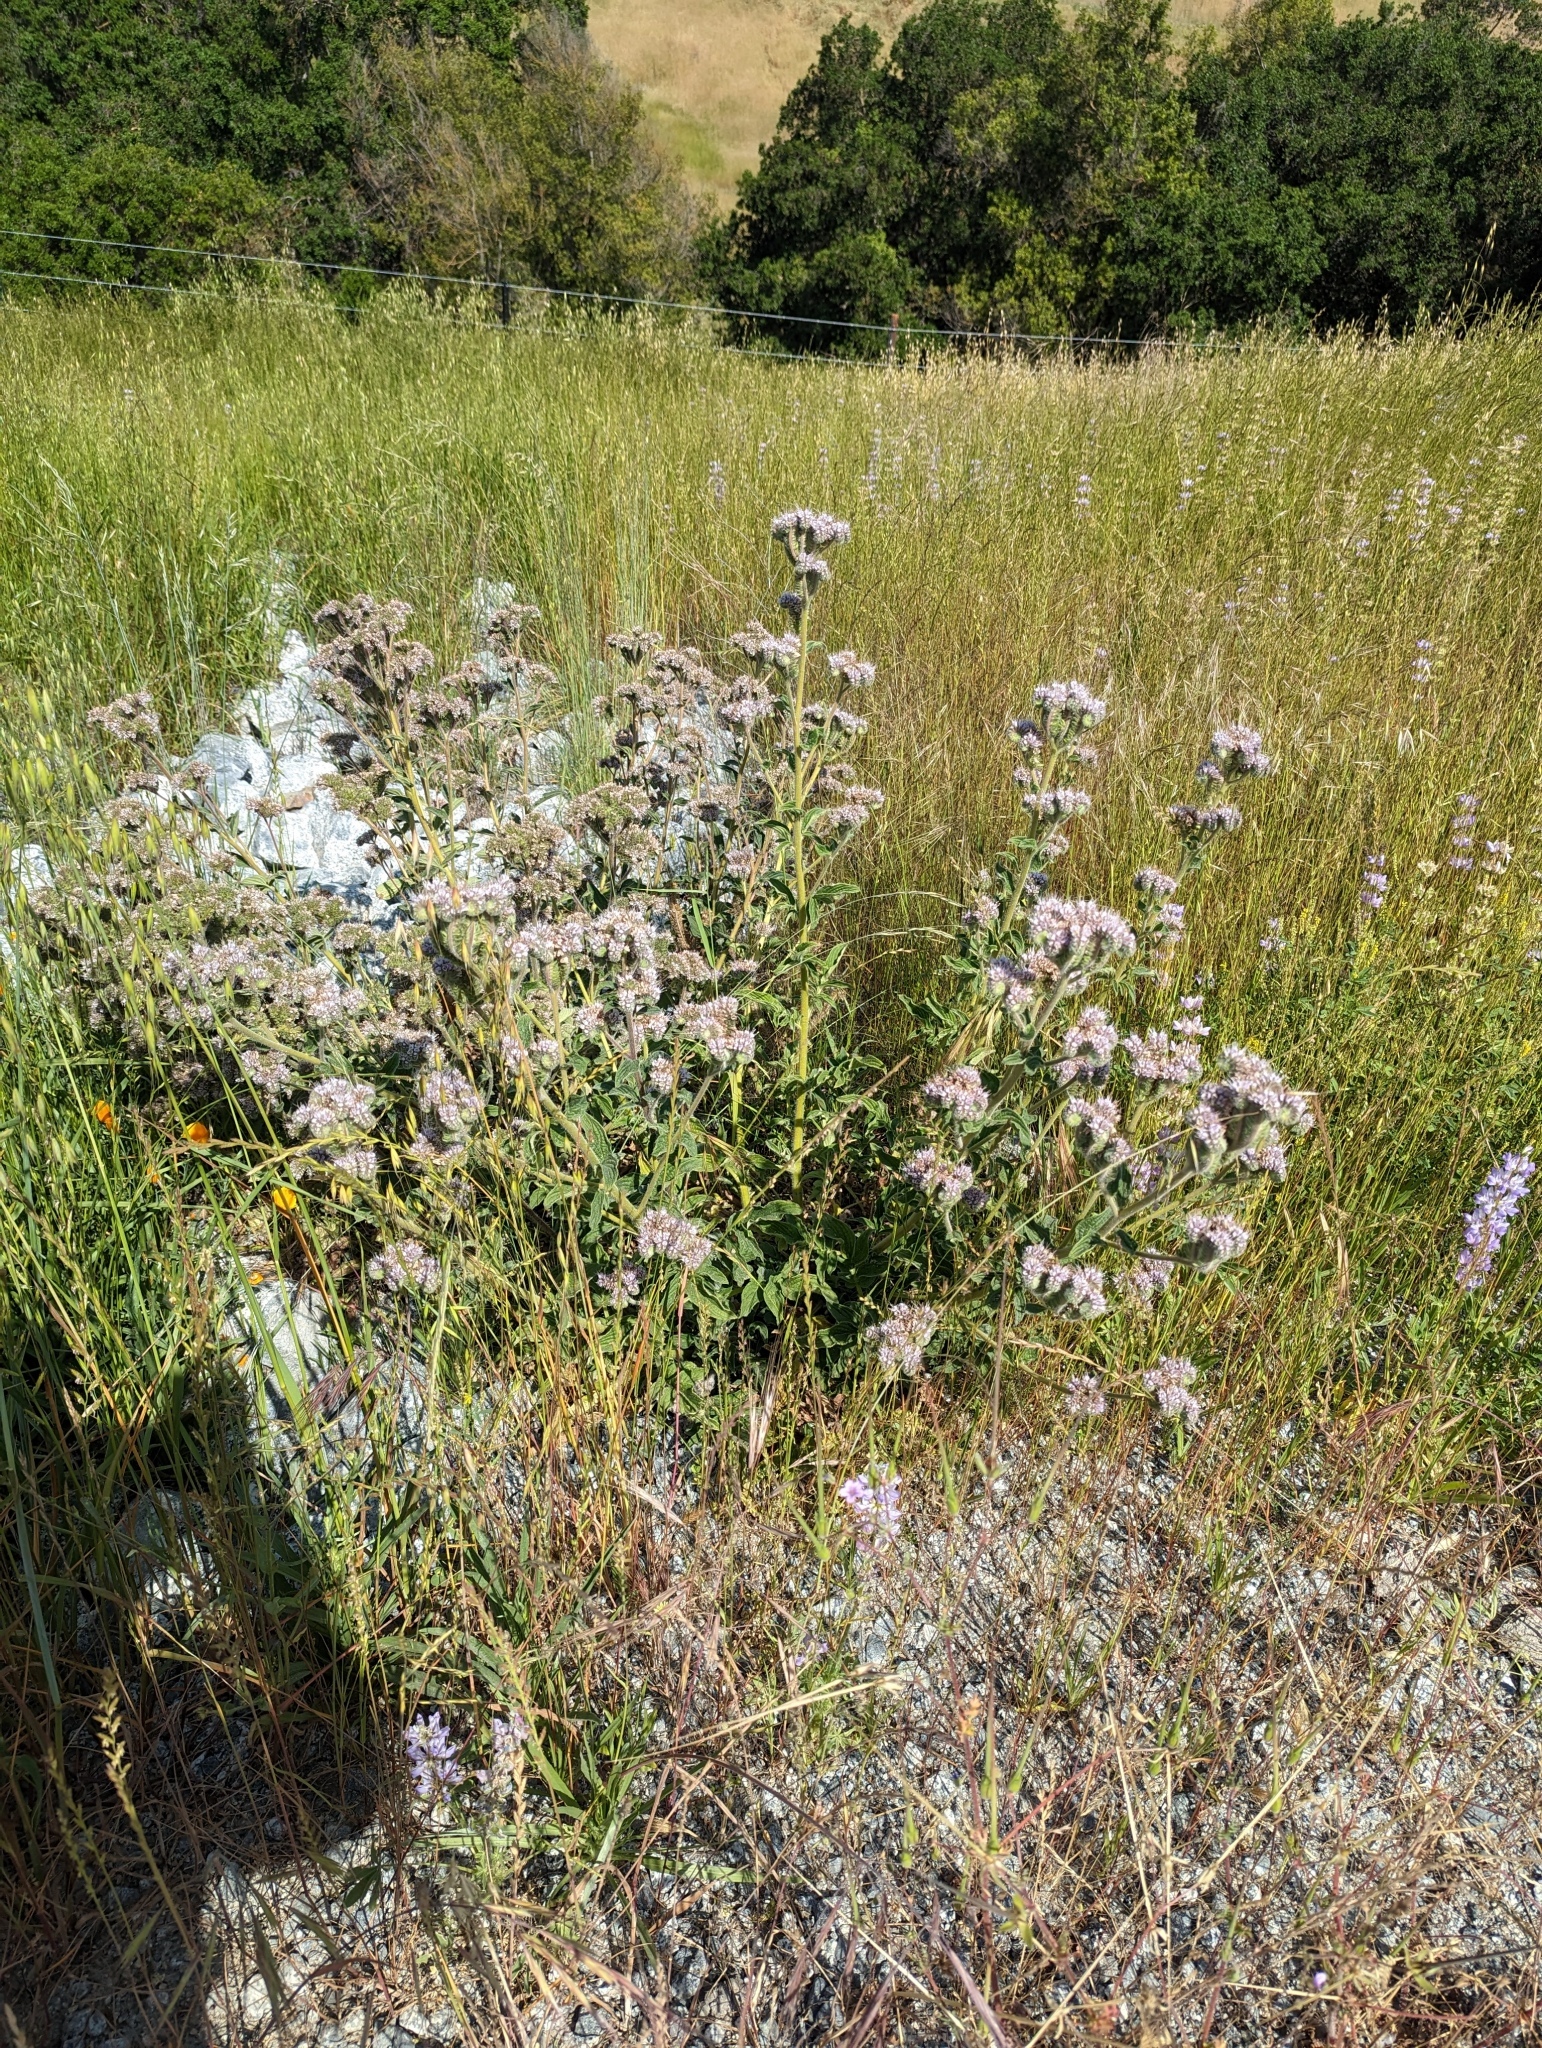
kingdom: Plantae
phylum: Tracheophyta
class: Magnoliopsida
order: Boraginales
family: Hydrophyllaceae
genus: Phacelia
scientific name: Phacelia californica
